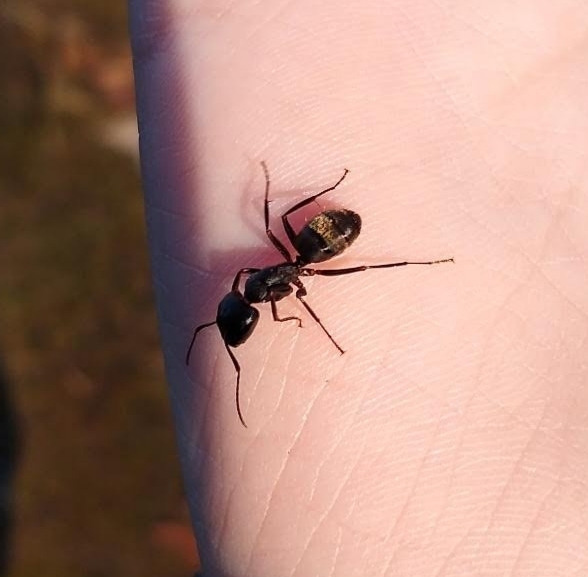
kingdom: Animalia
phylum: Arthropoda
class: Insecta
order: Hymenoptera
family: Formicidae
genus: Camponotus
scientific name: Camponotus pennsylvanicus
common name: Black carpenter ant
